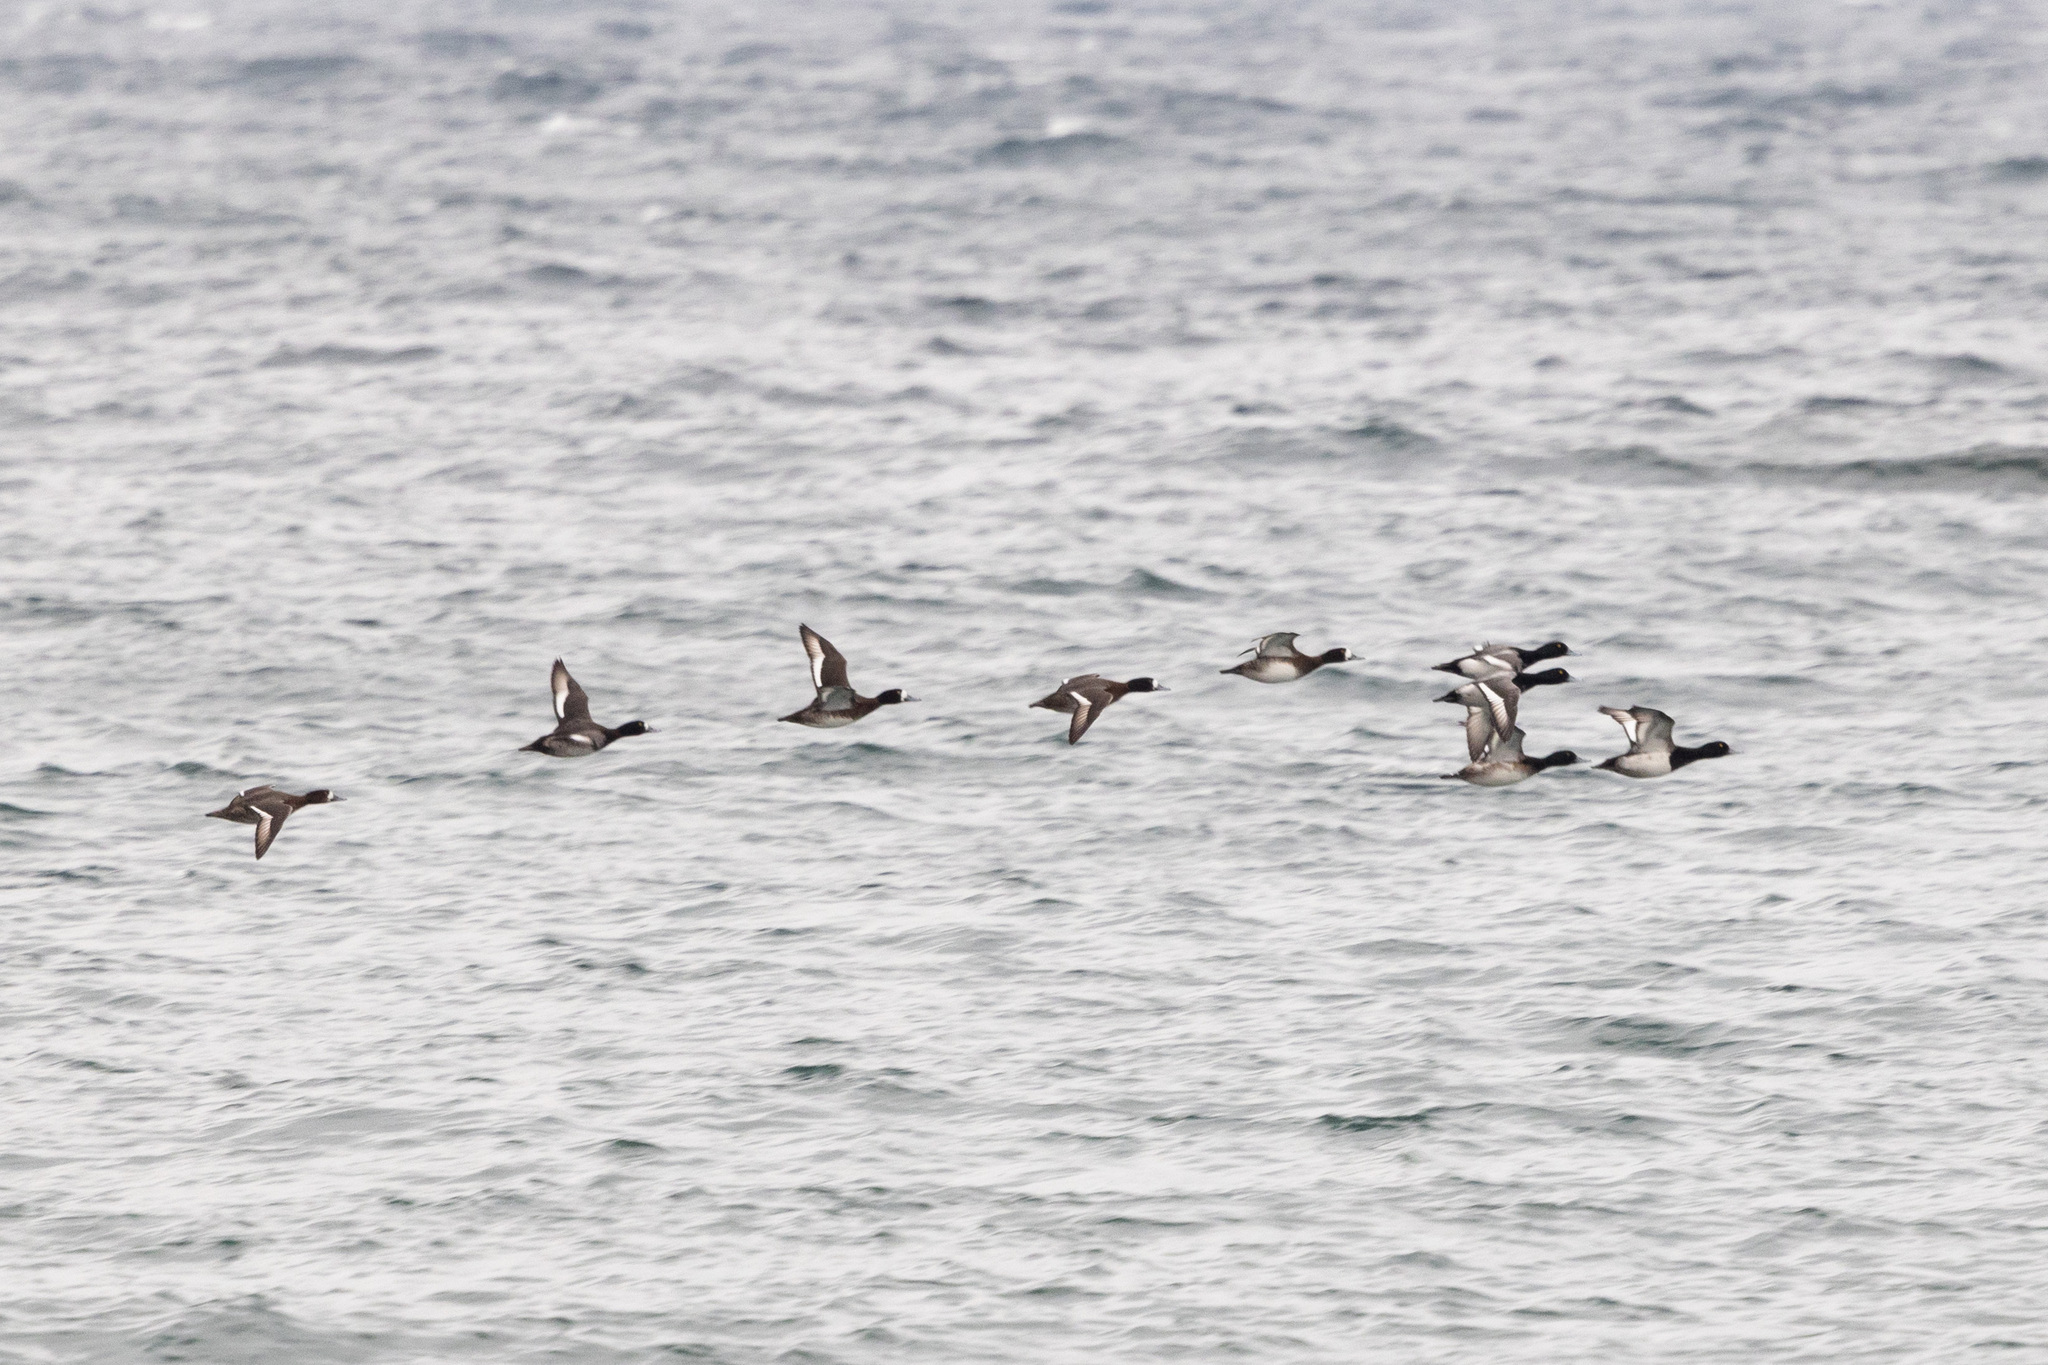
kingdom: Animalia
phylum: Chordata
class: Aves
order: Anseriformes
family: Anatidae
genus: Aythya
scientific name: Aythya marila
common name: Greater scaup
